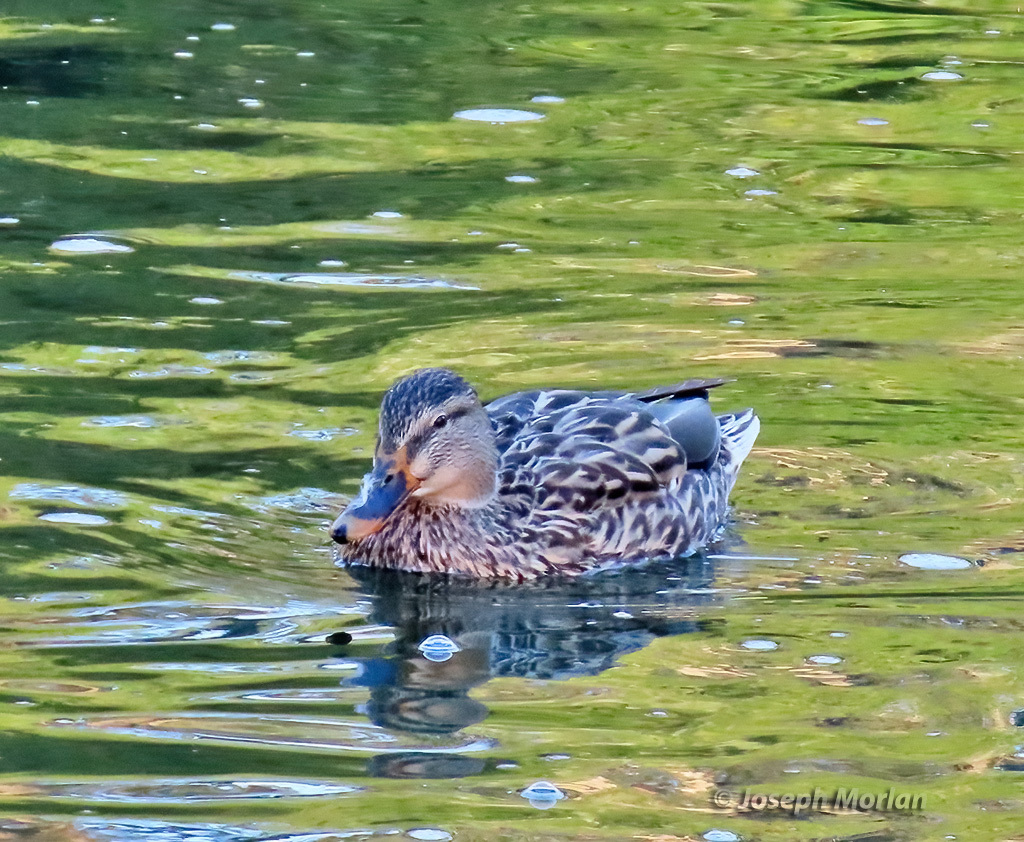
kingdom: Animalia
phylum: Chordata
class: Aves
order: Anseriformes
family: Anatidae
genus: Anas
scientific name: Anas platyrhynchos
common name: Mallard
